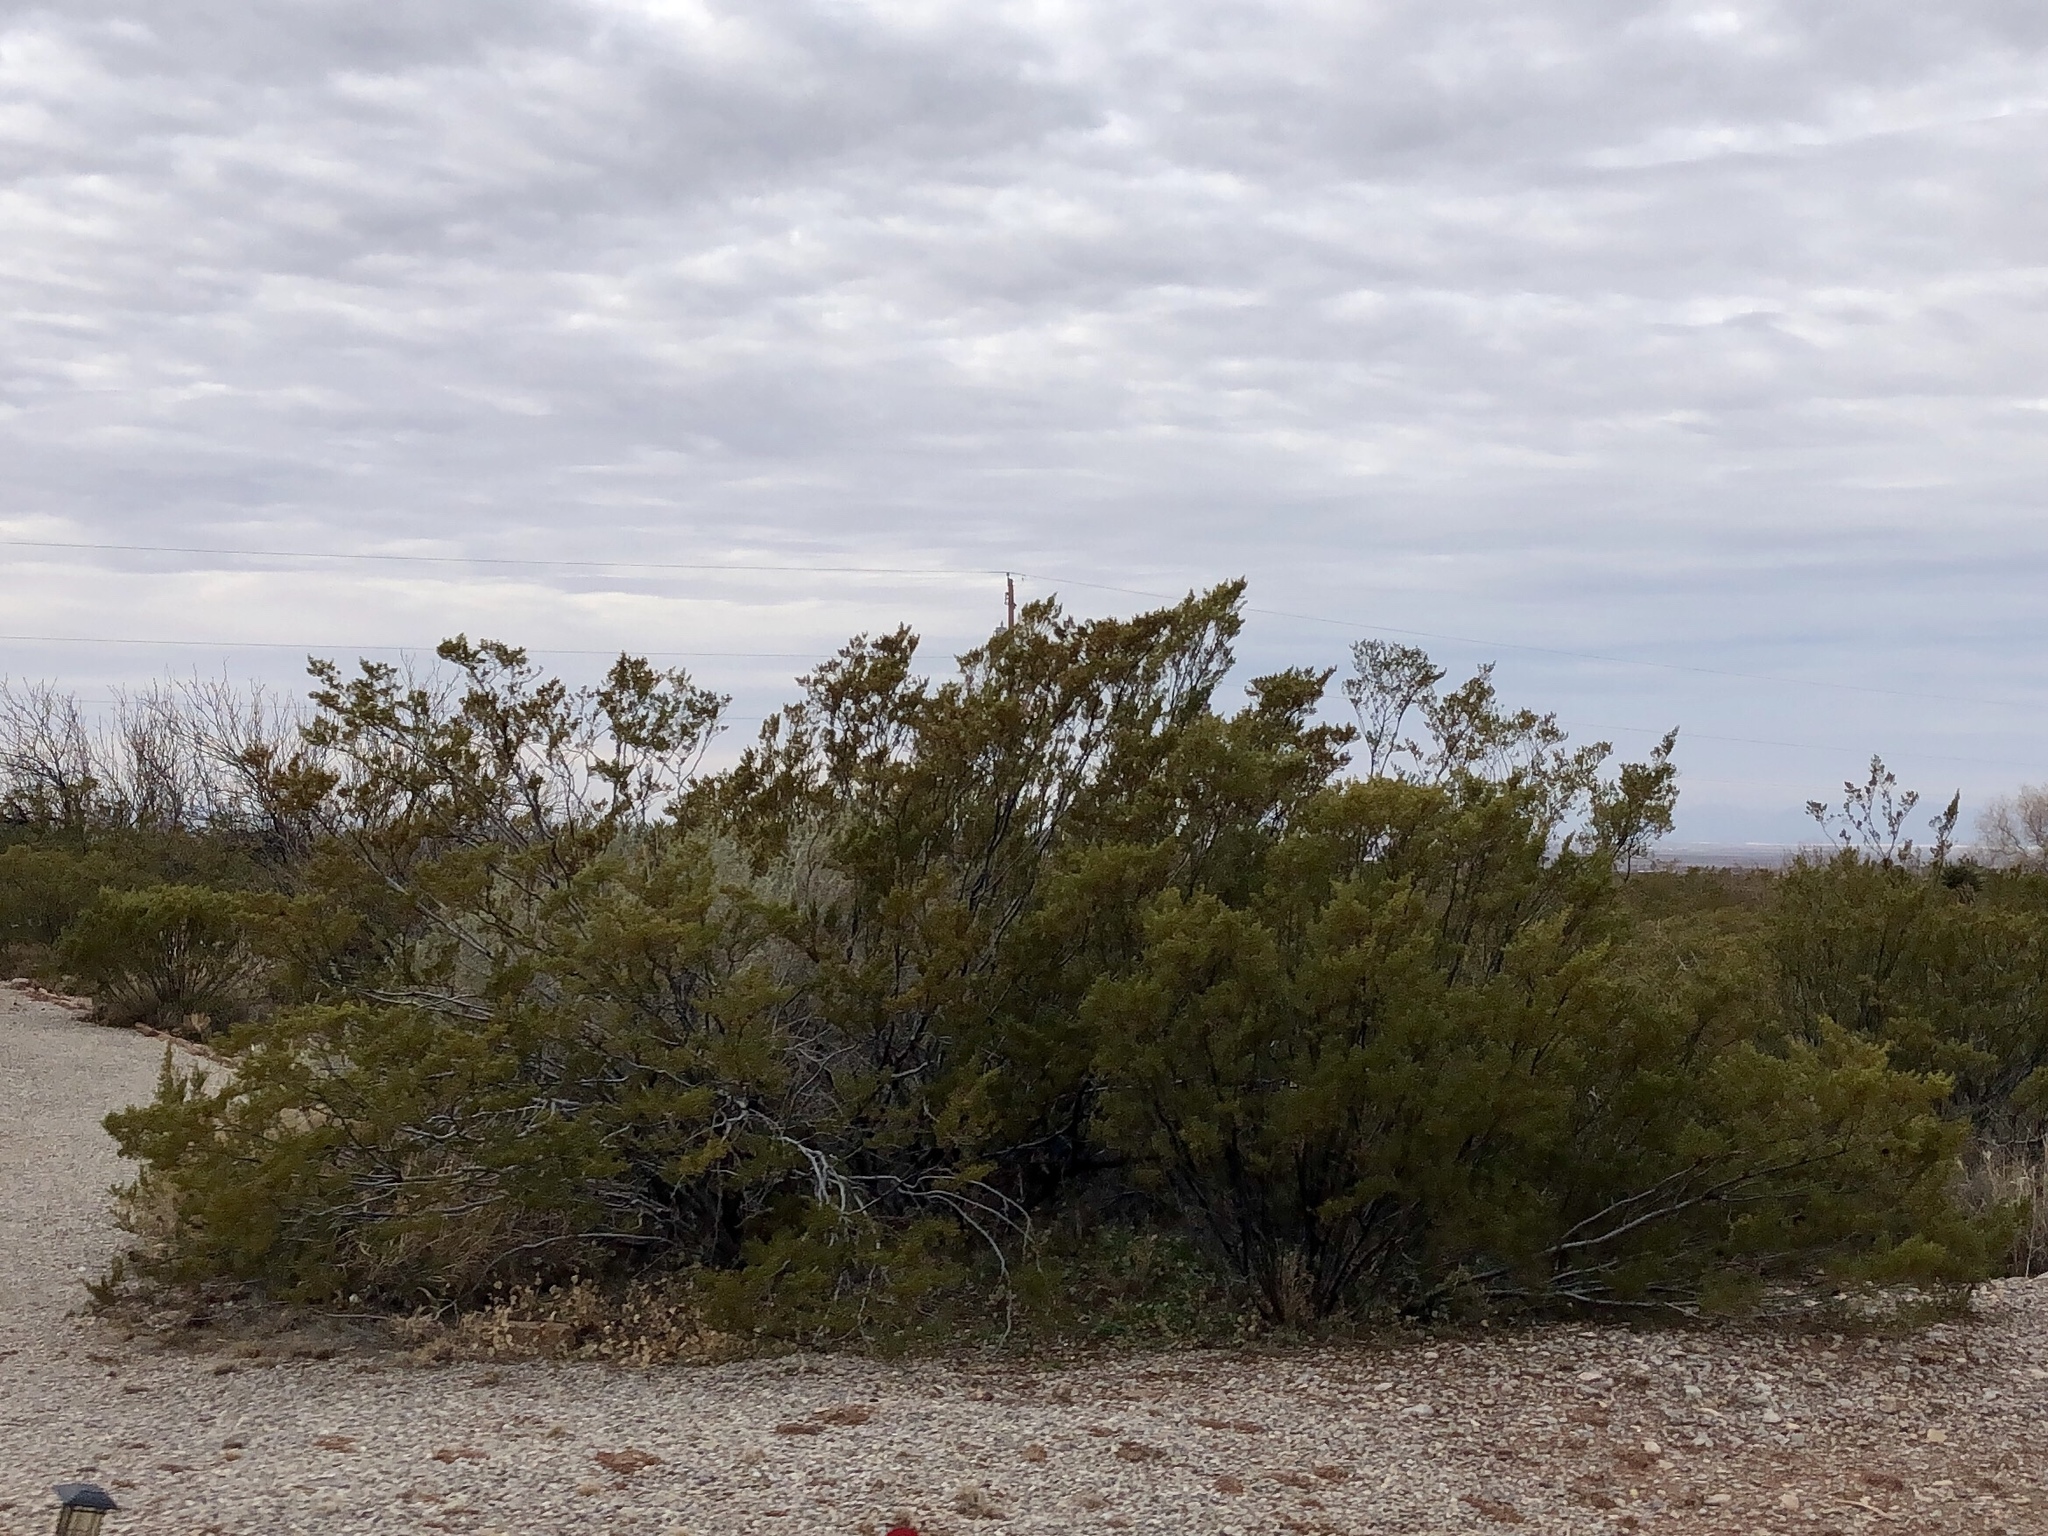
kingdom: Plantae
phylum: Tracheophyta
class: Magnoliopsida
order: Zygophyllales
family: Zygophyllaceae
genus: Larrea
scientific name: Larrea tridentata
